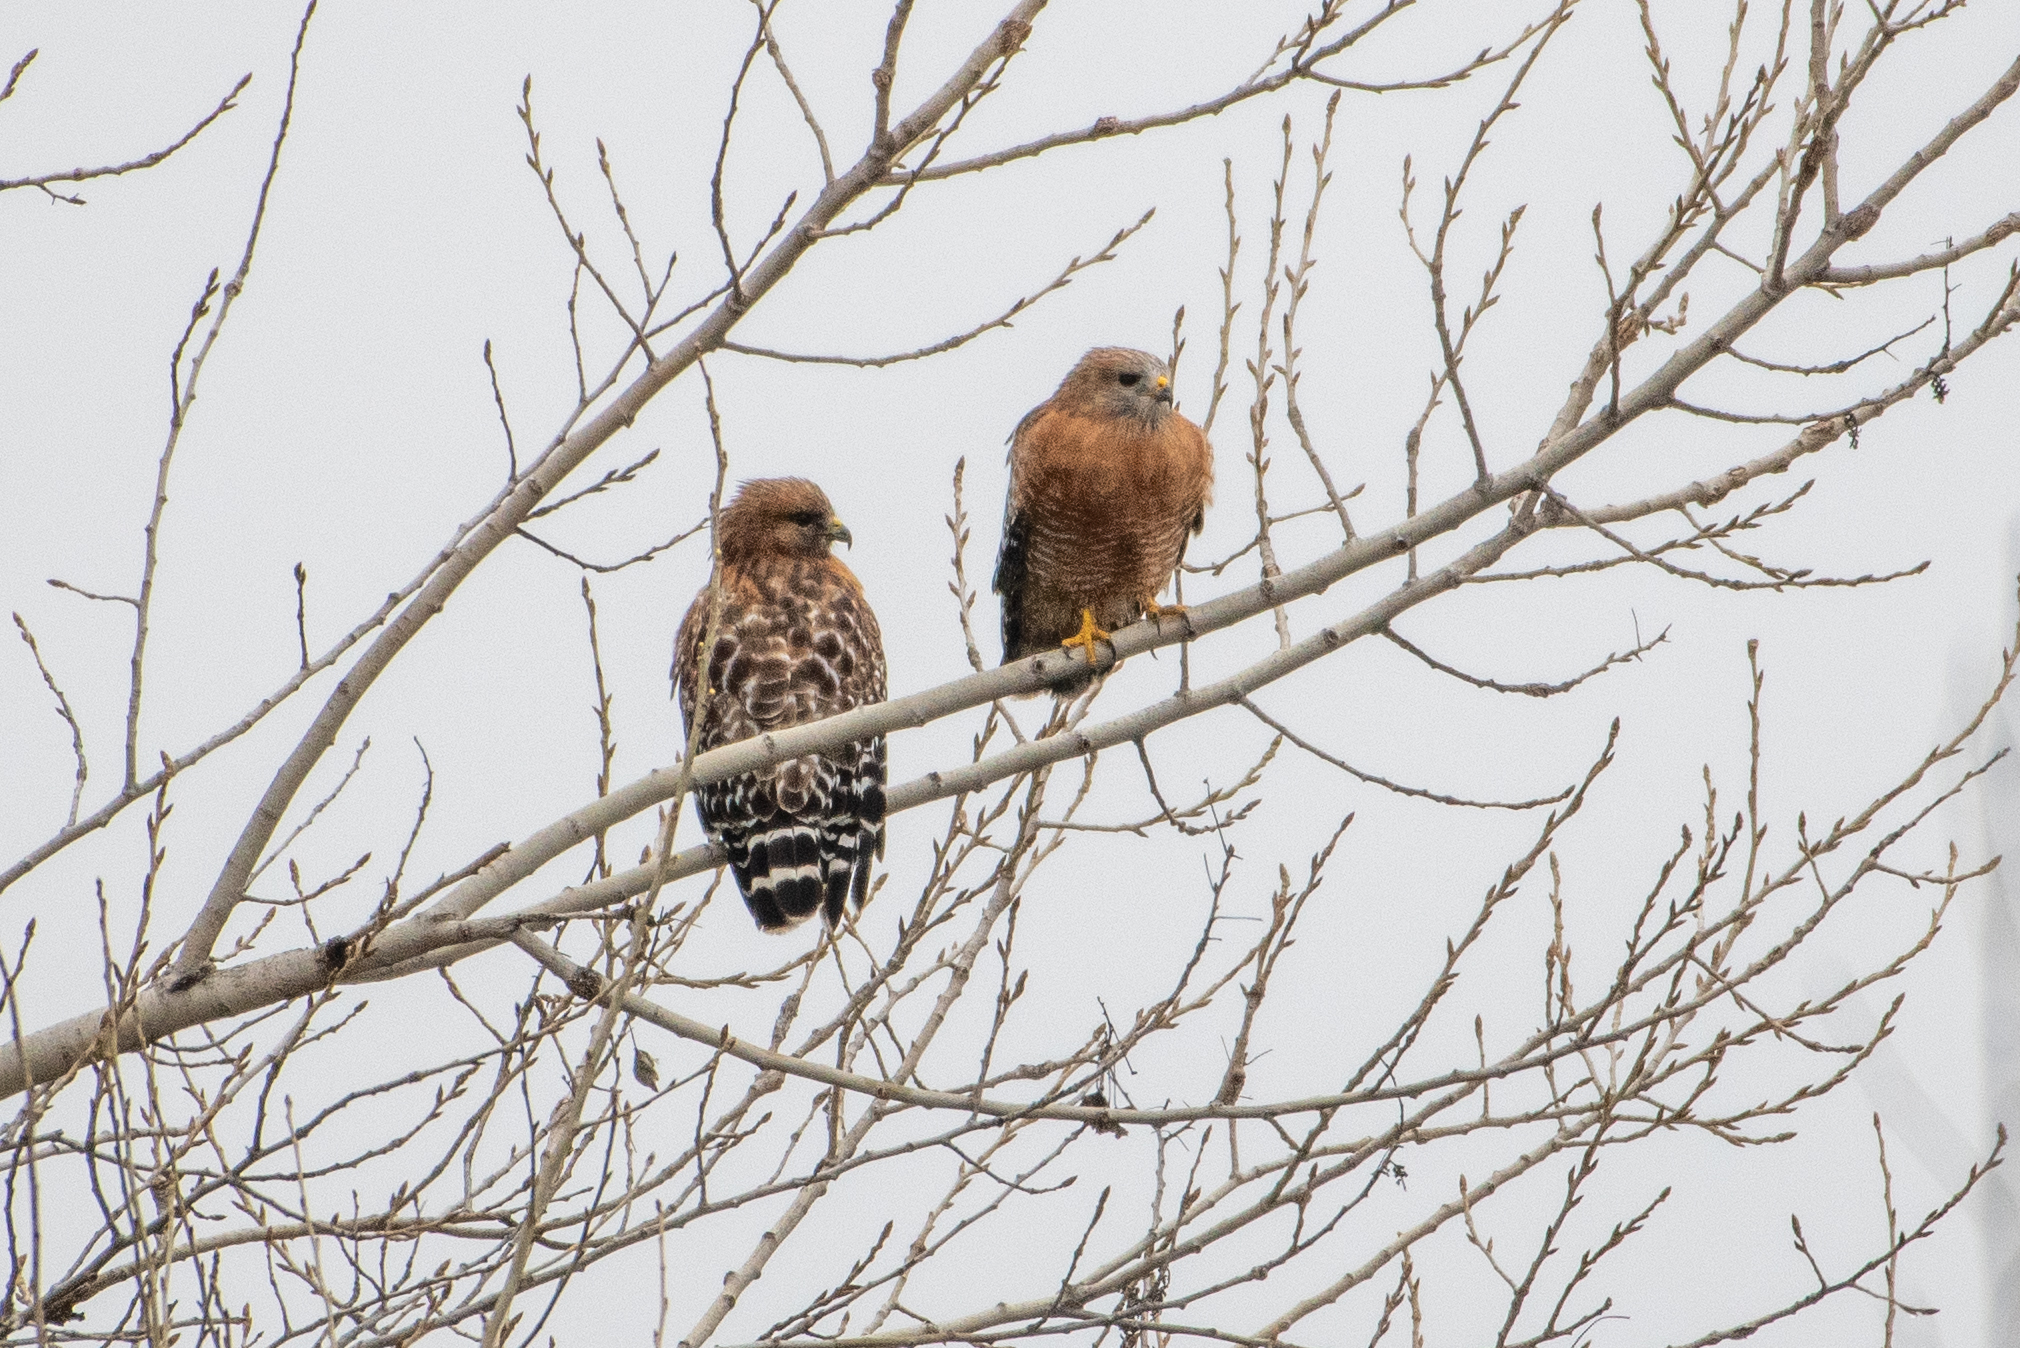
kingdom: Animalia
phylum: Chordata
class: Aves
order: Accipitriformes
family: Accipitridae
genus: Buteo
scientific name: Buteo lineatus
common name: Red-shouldered hawk
